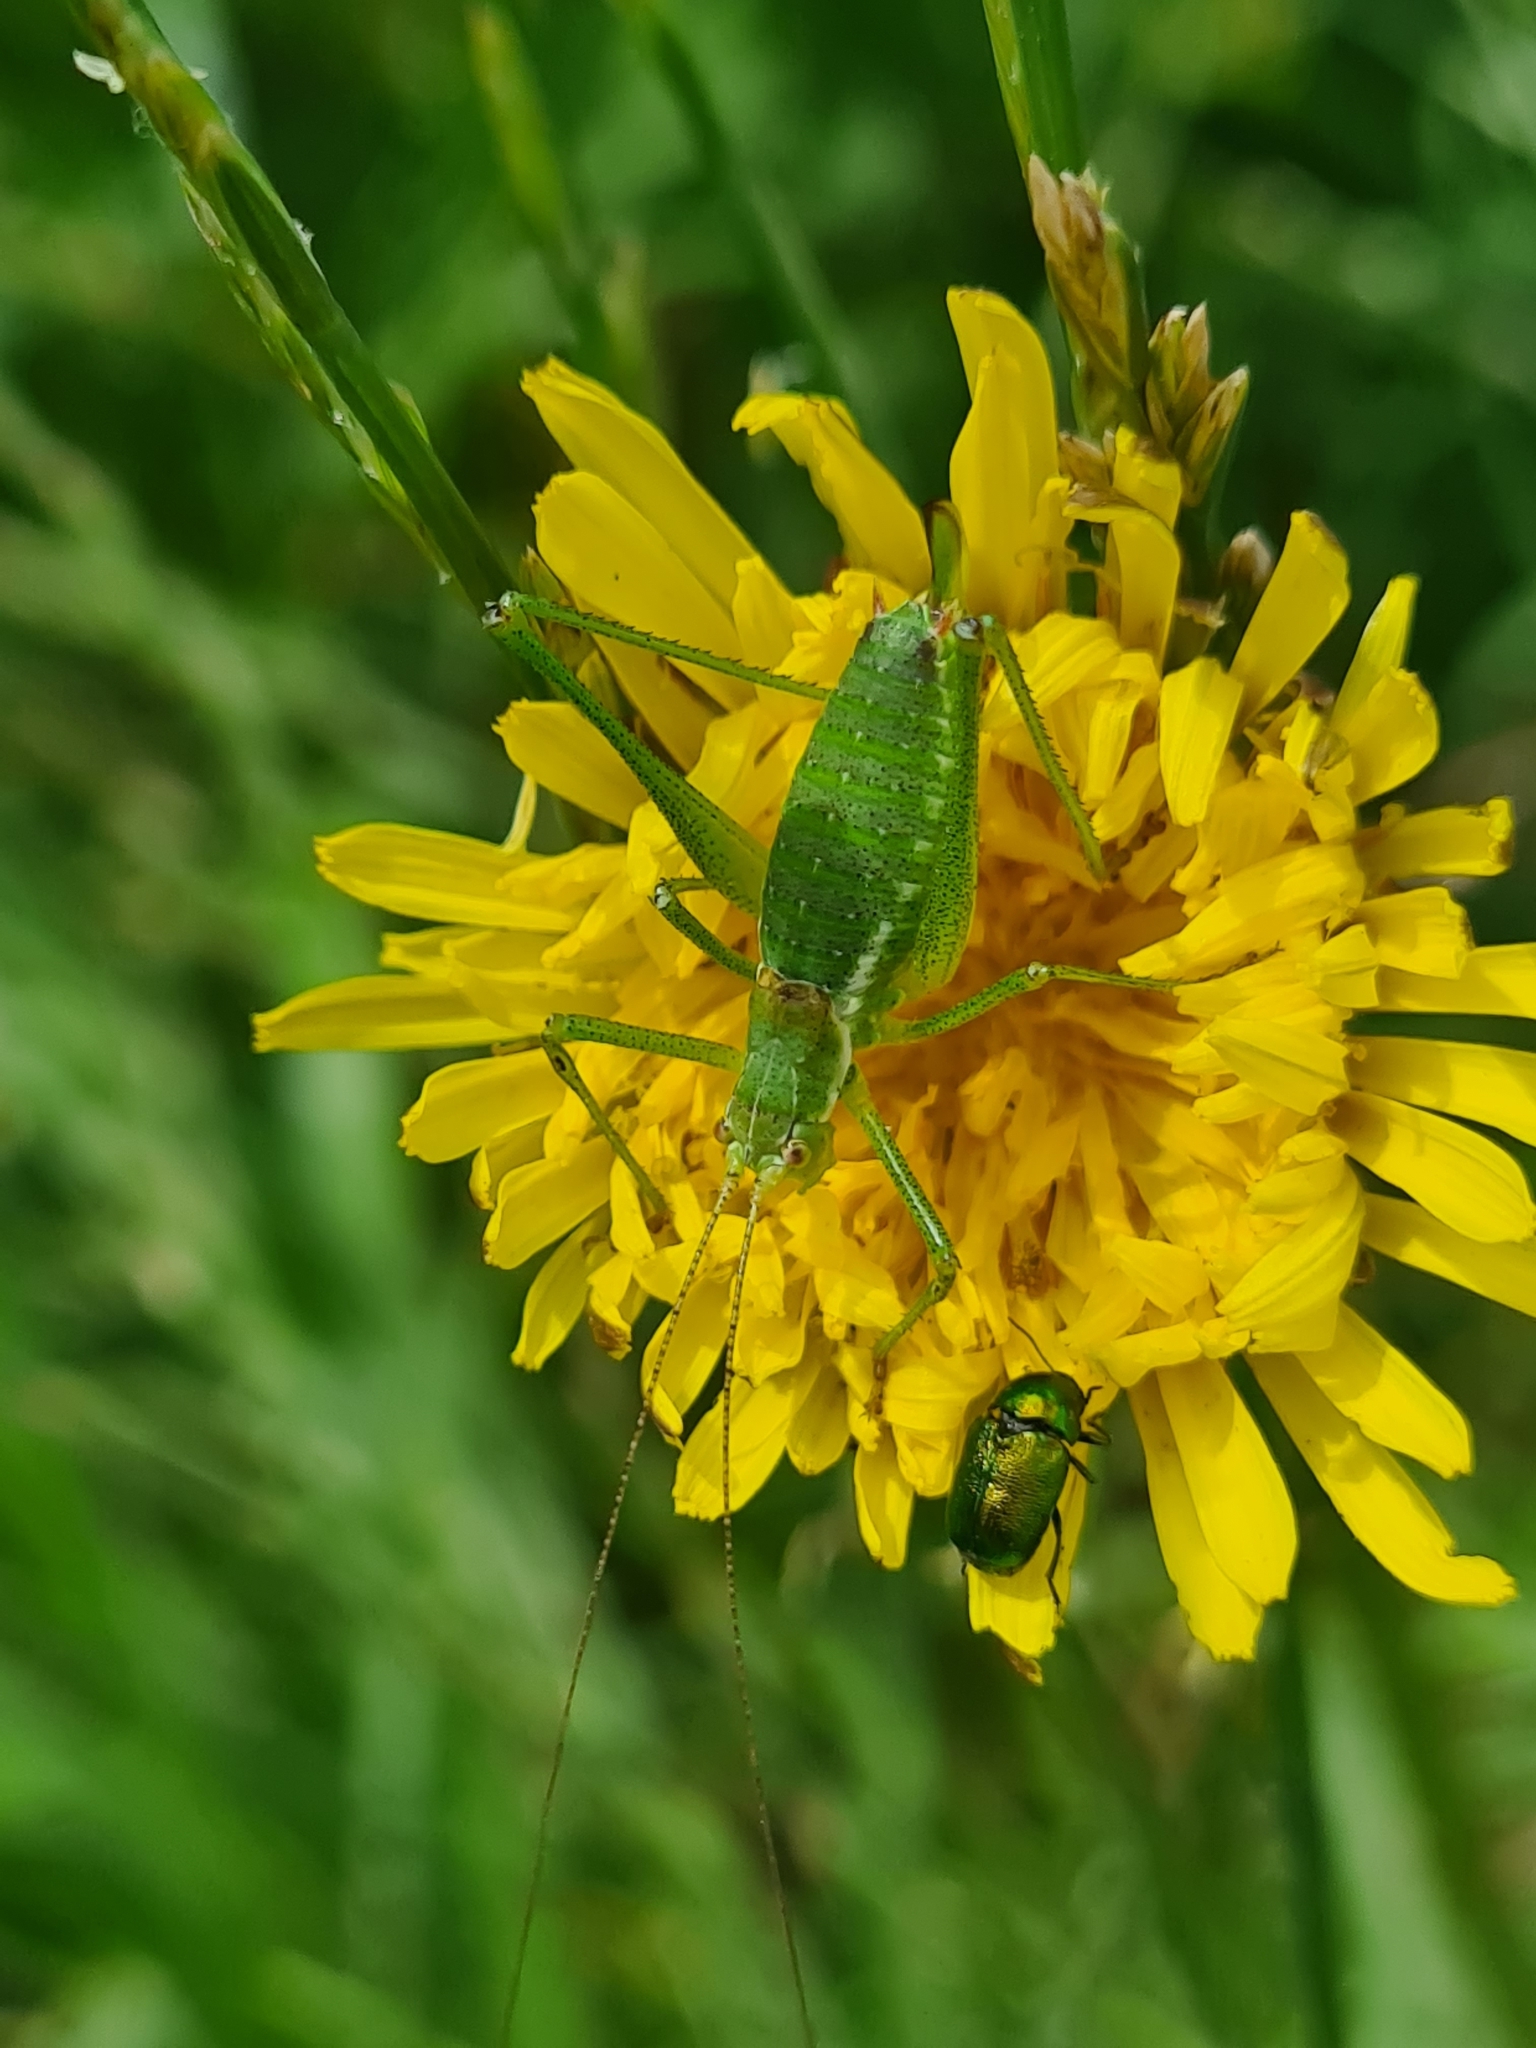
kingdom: Animalia
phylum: Arthropoda
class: Insecta
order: Orthoptera
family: Tettigoniidae
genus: Leptophyes
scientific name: Leptophyes albovittata
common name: Striped bush-cricket
